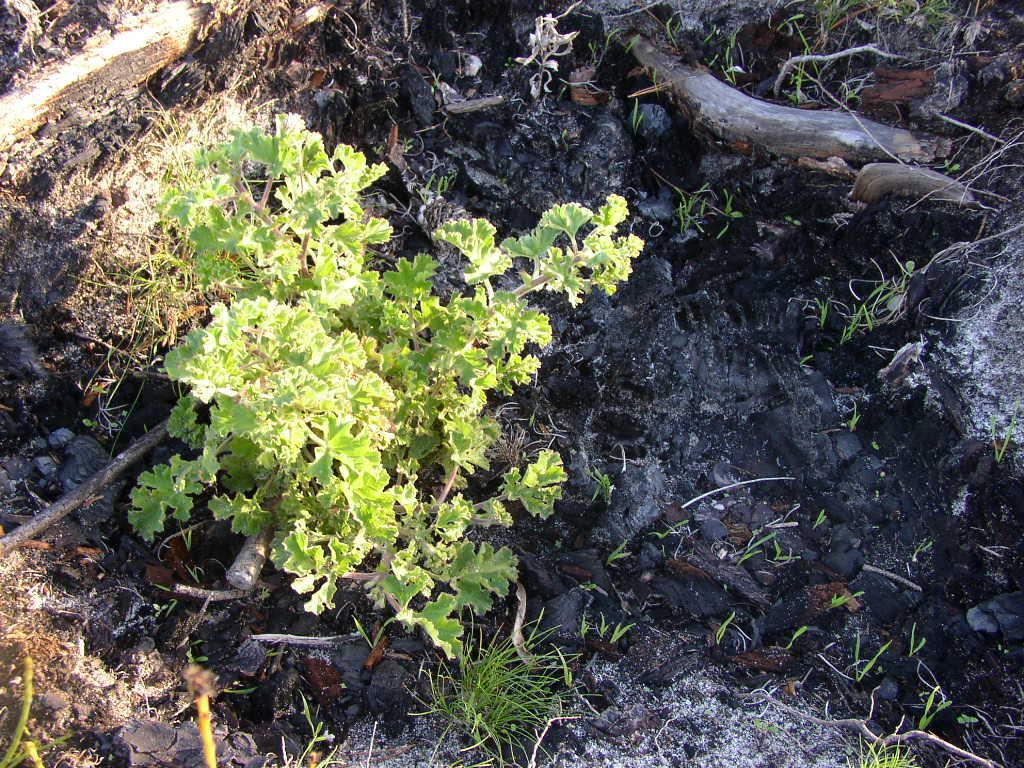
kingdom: Plantae
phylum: Tracheophyta
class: Magnoliopsida
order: Geraniales
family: Geraniaceae
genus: Pelargonium
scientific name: Pelargonium capitatum
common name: Rose scented geranium
